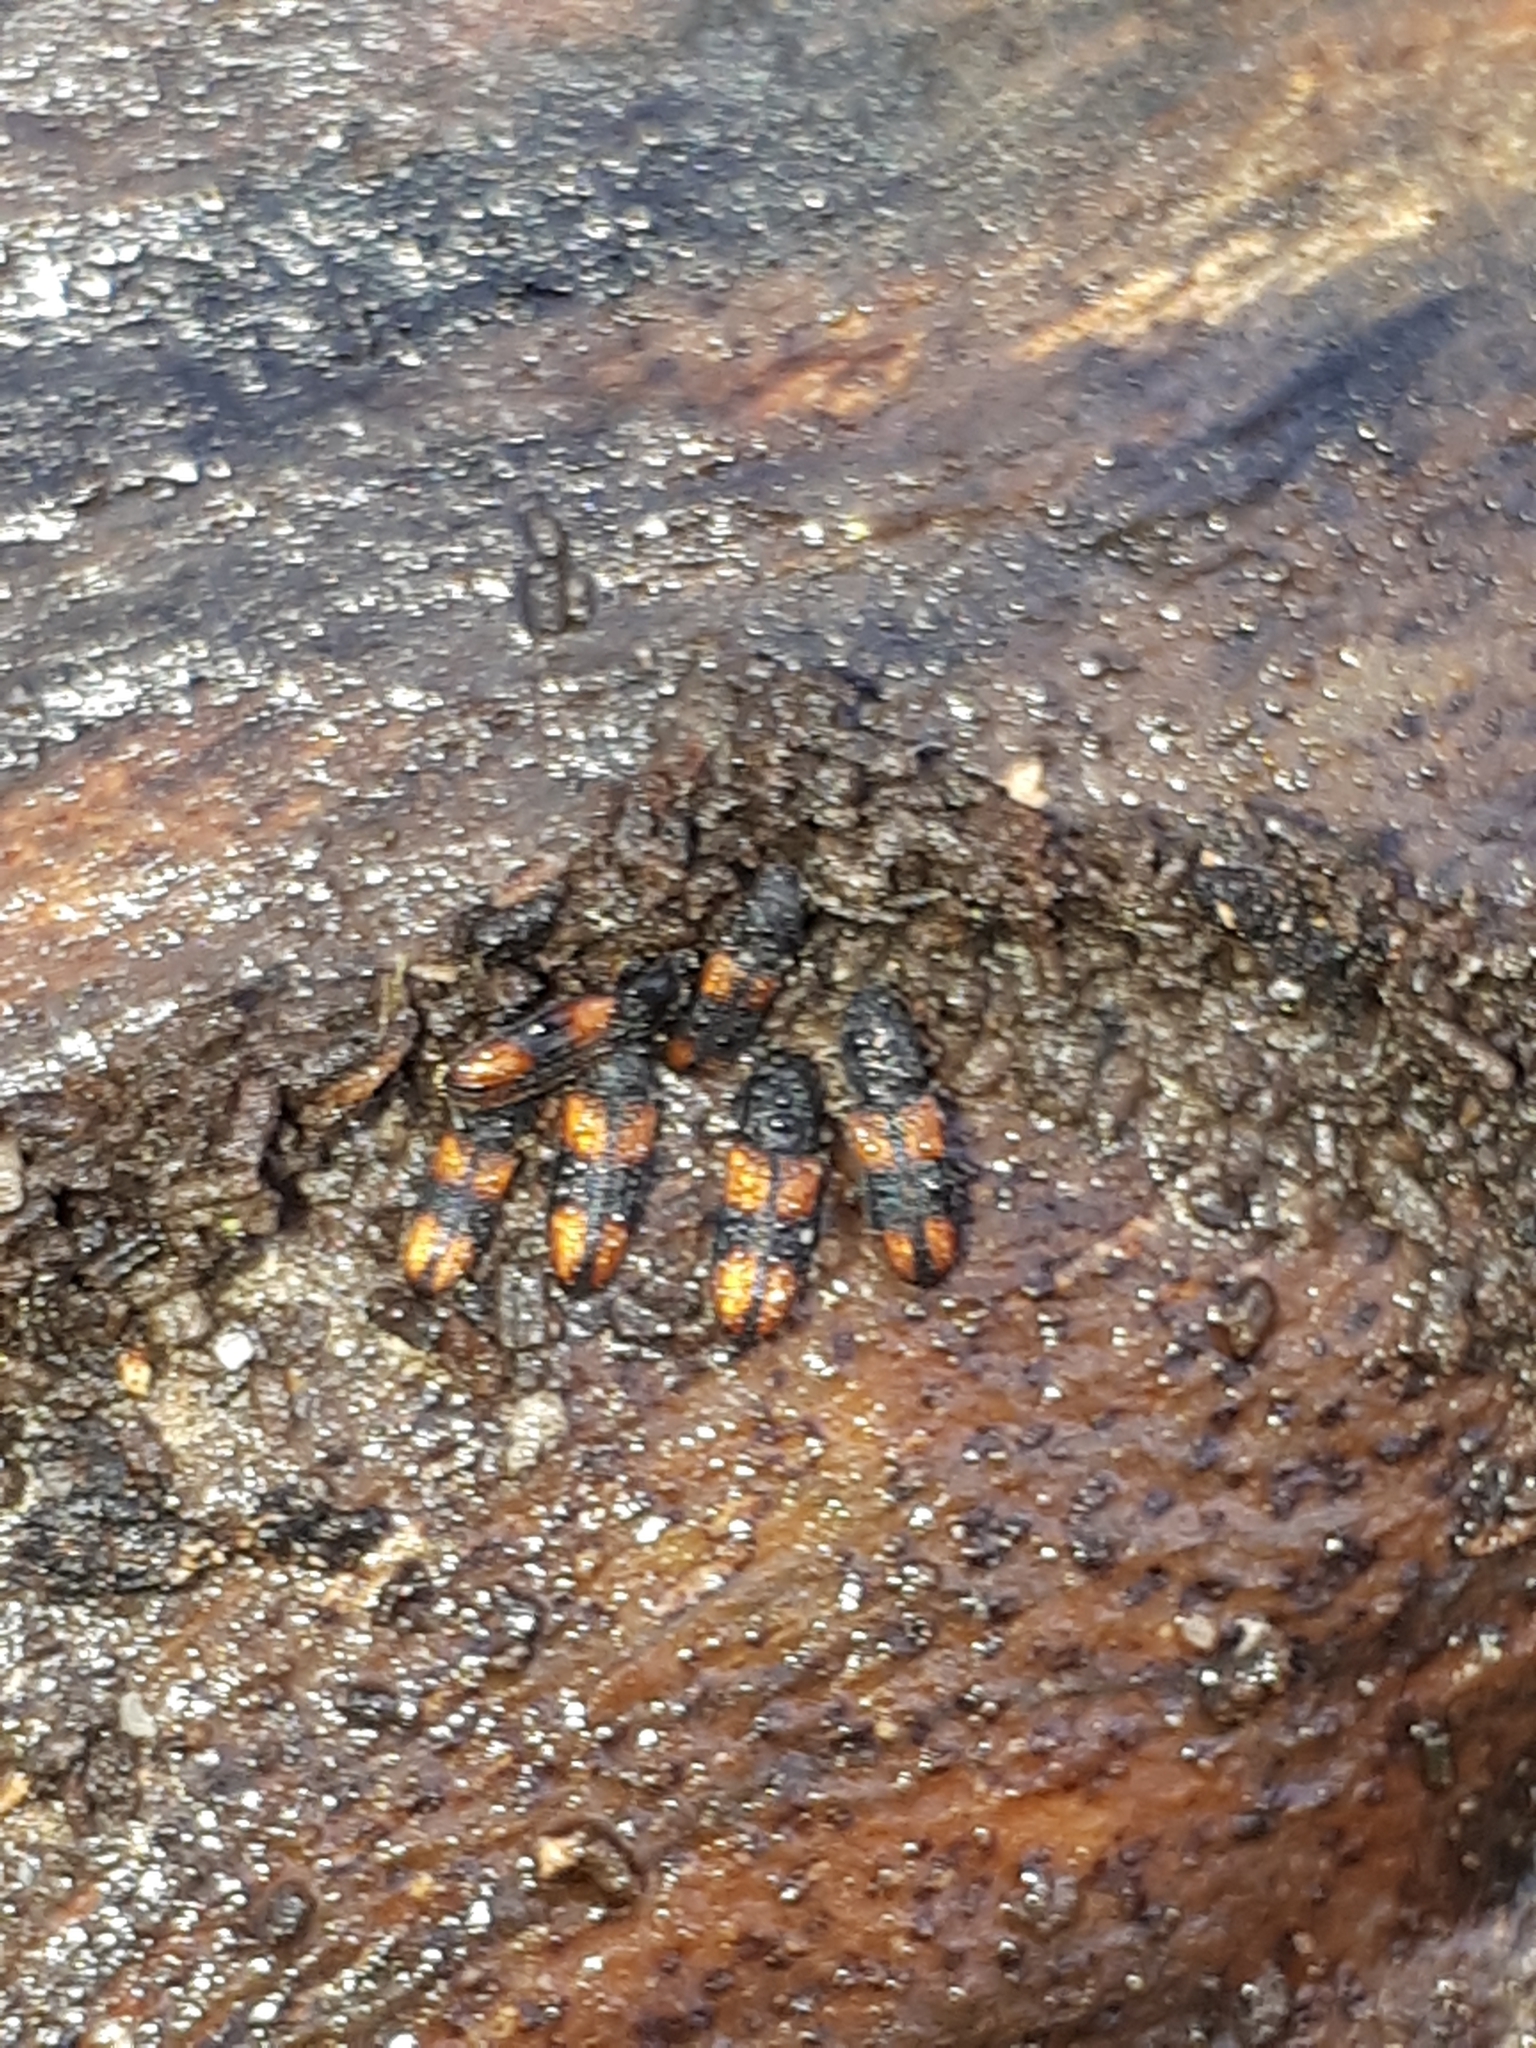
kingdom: Animalia
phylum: Arthropoda
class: Insecta
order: Coleoptera
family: Zopheridae
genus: Bitoma
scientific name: Bitoma crenata
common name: Bark beetle
